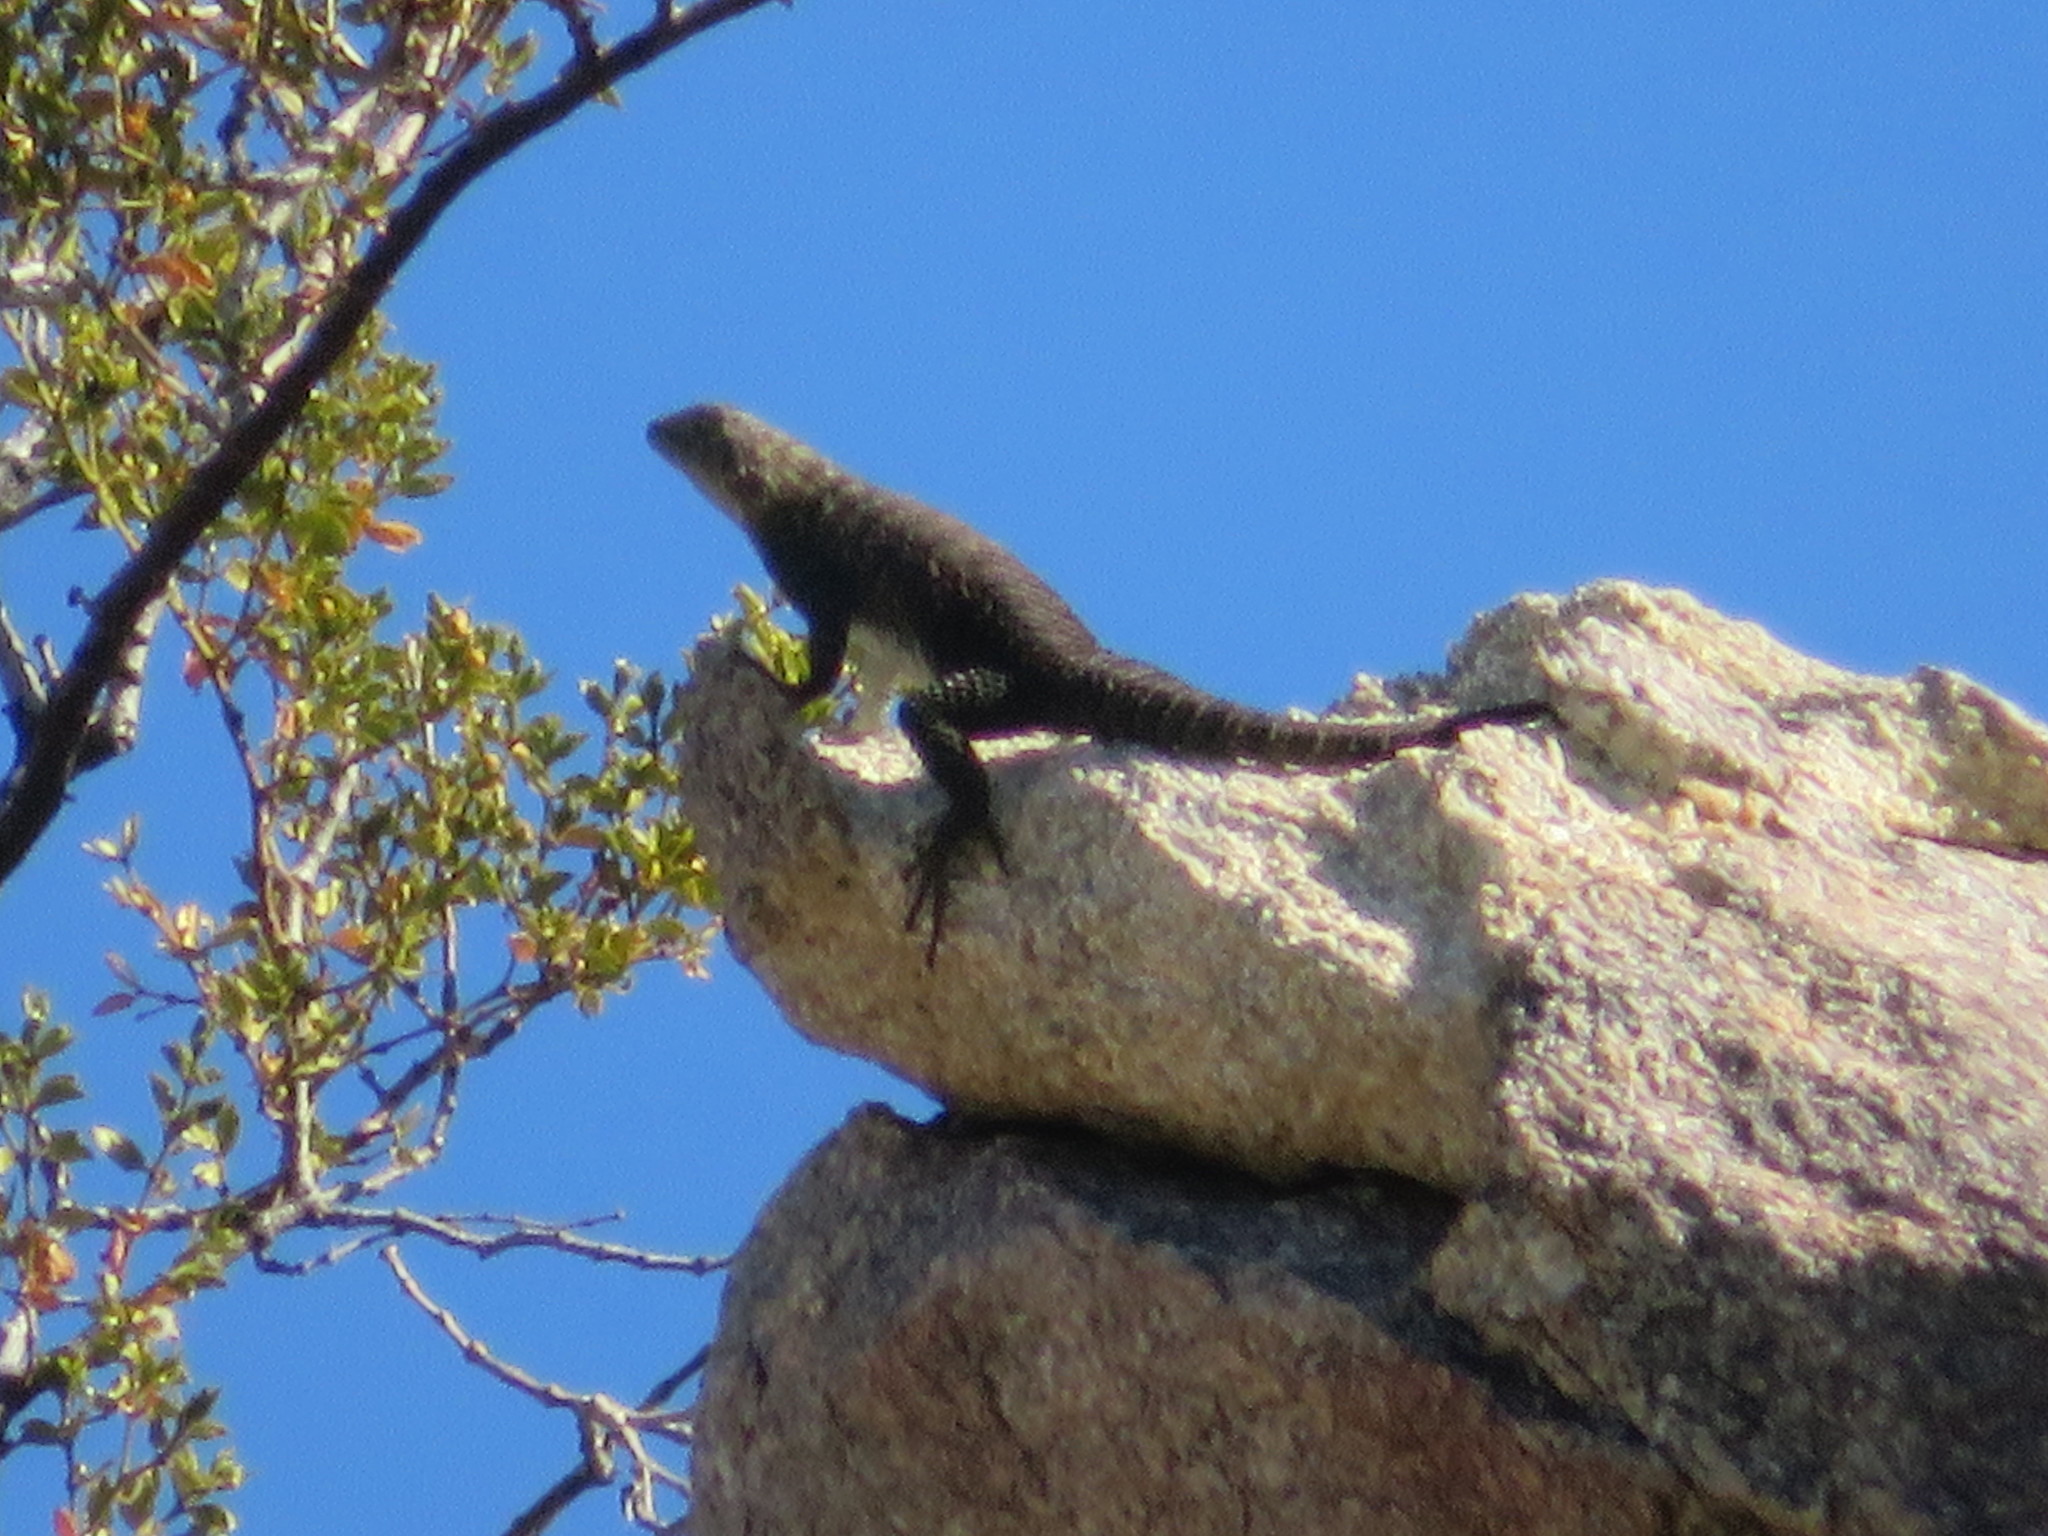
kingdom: Animalia
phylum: Chordata
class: Squamata
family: Phrynosomatidae
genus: Sceloporus
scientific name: Sceloporus orcutti
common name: Granite spiny lizard
